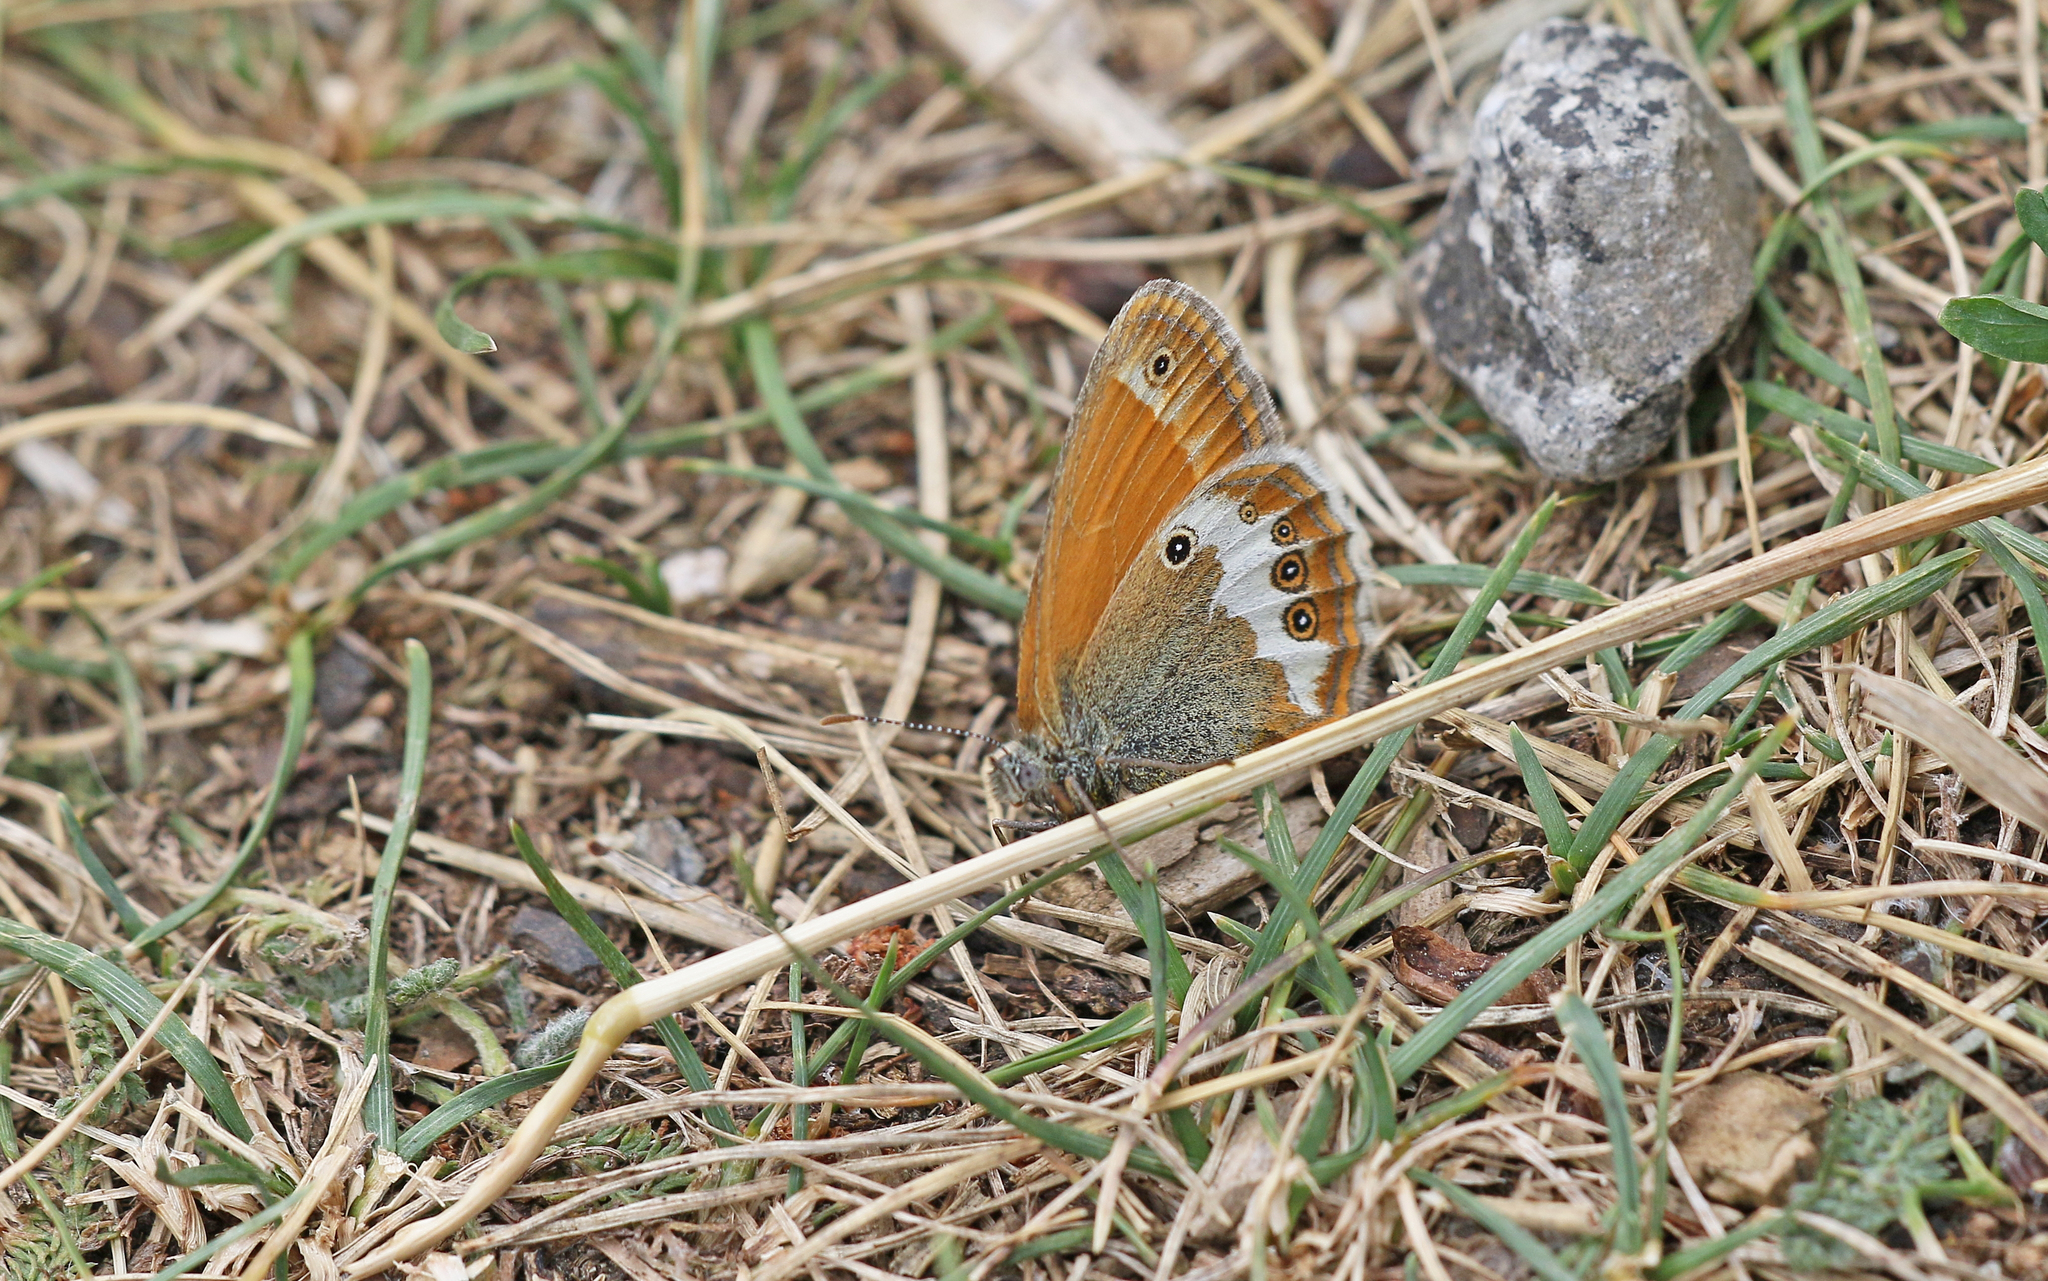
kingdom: Animalia
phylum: Arthropoda
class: Insecta
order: Lepidoptera
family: Nymphalidae
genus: Coenonympha
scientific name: Coenonympha arcania
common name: Pearly heath
